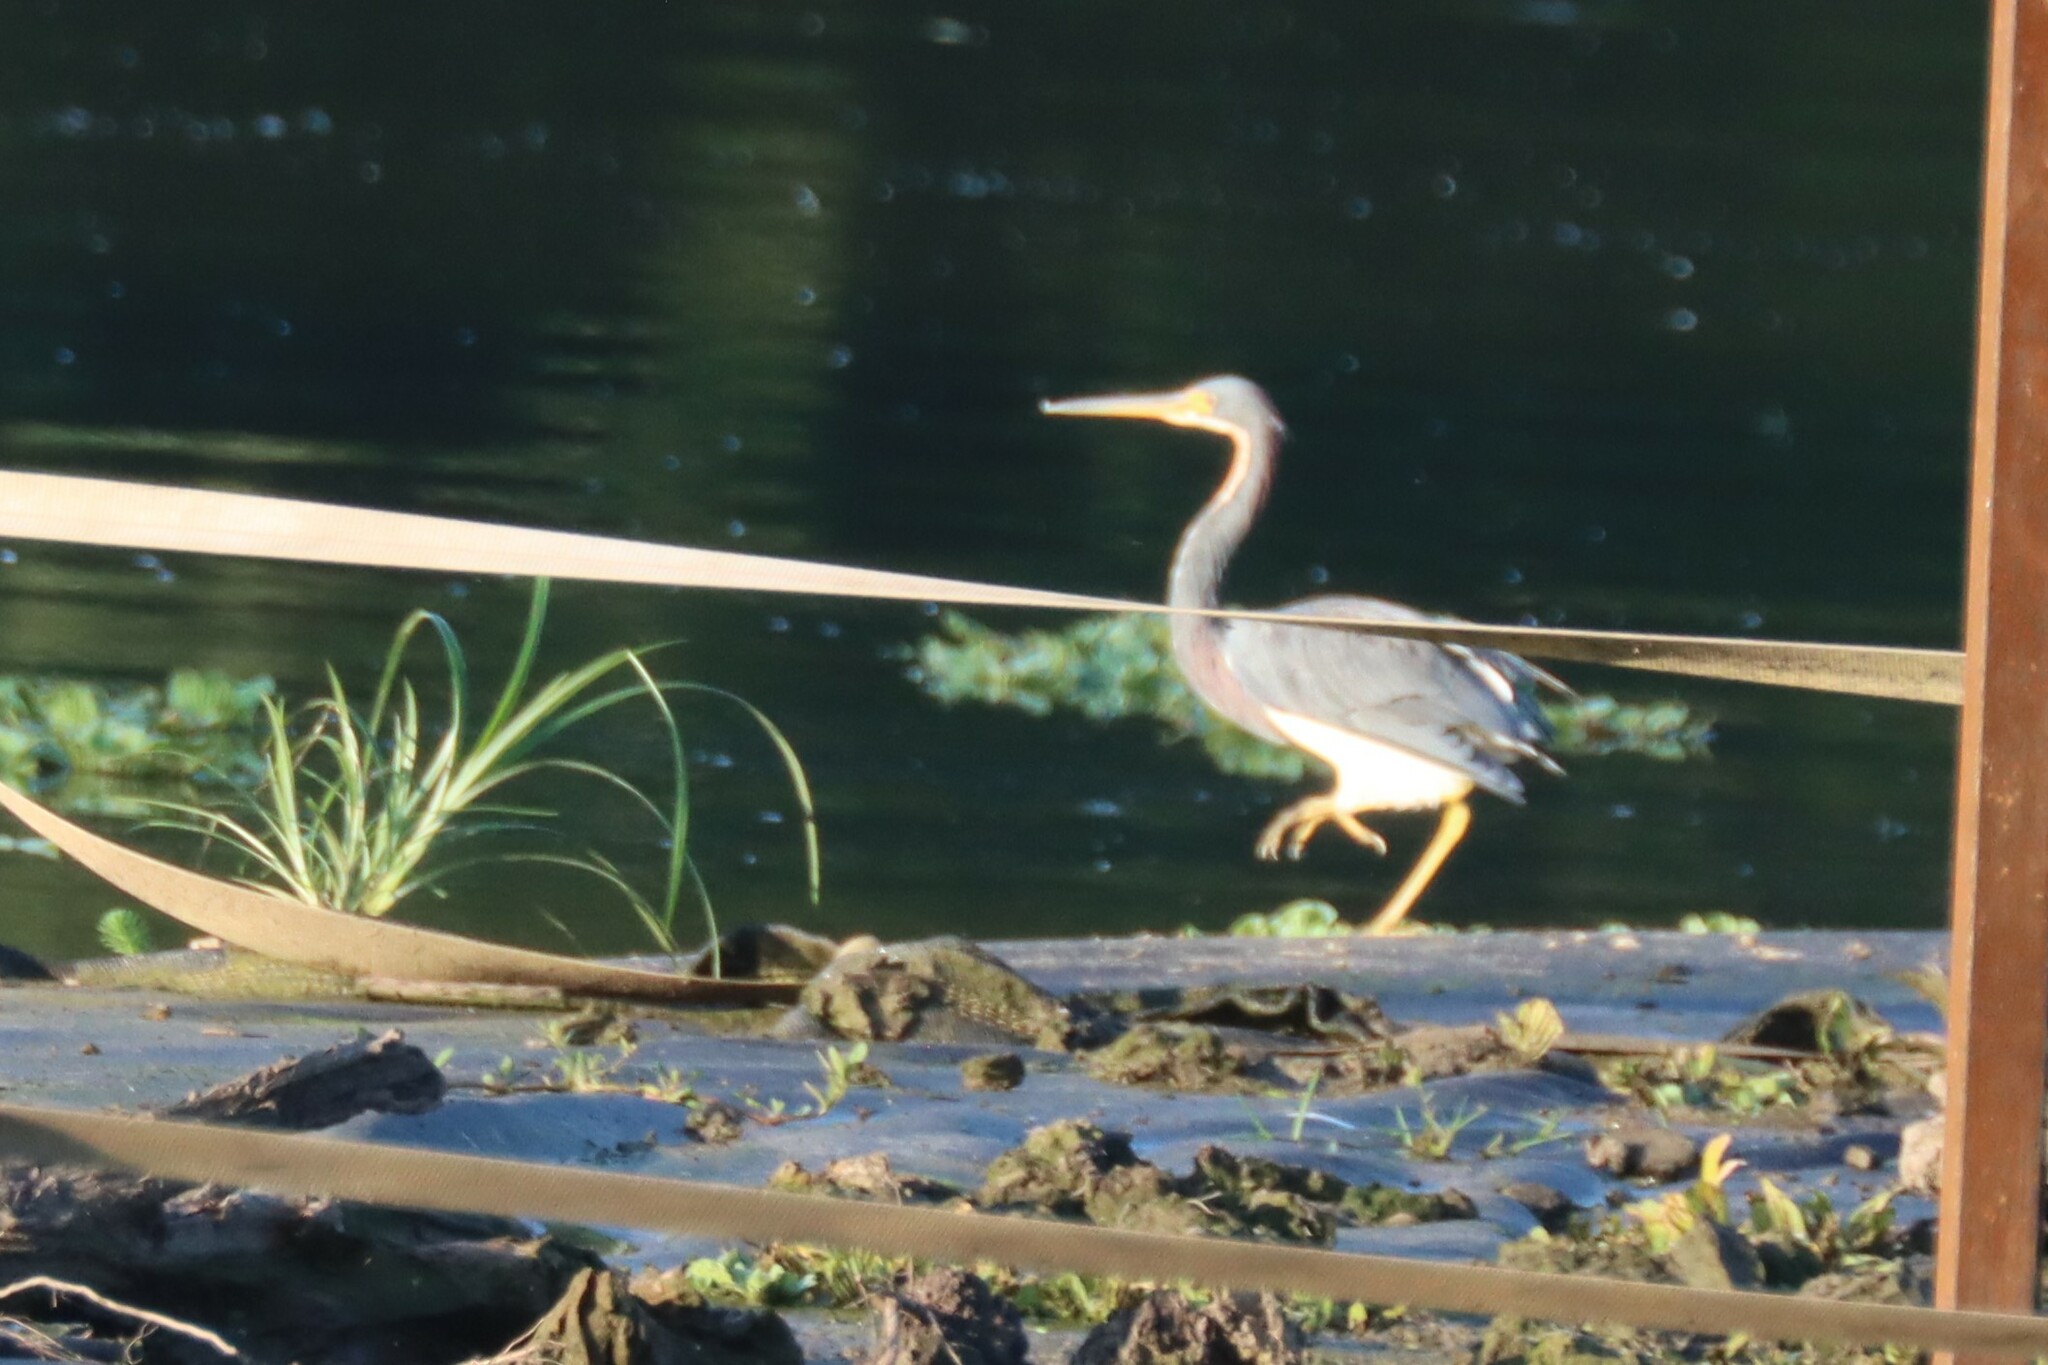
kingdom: Animalia
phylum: Chordata
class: Aves
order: Pelecaniformes
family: Ardeidae
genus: Egretta
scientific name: Egretta tricolor
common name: Tricolored heron
